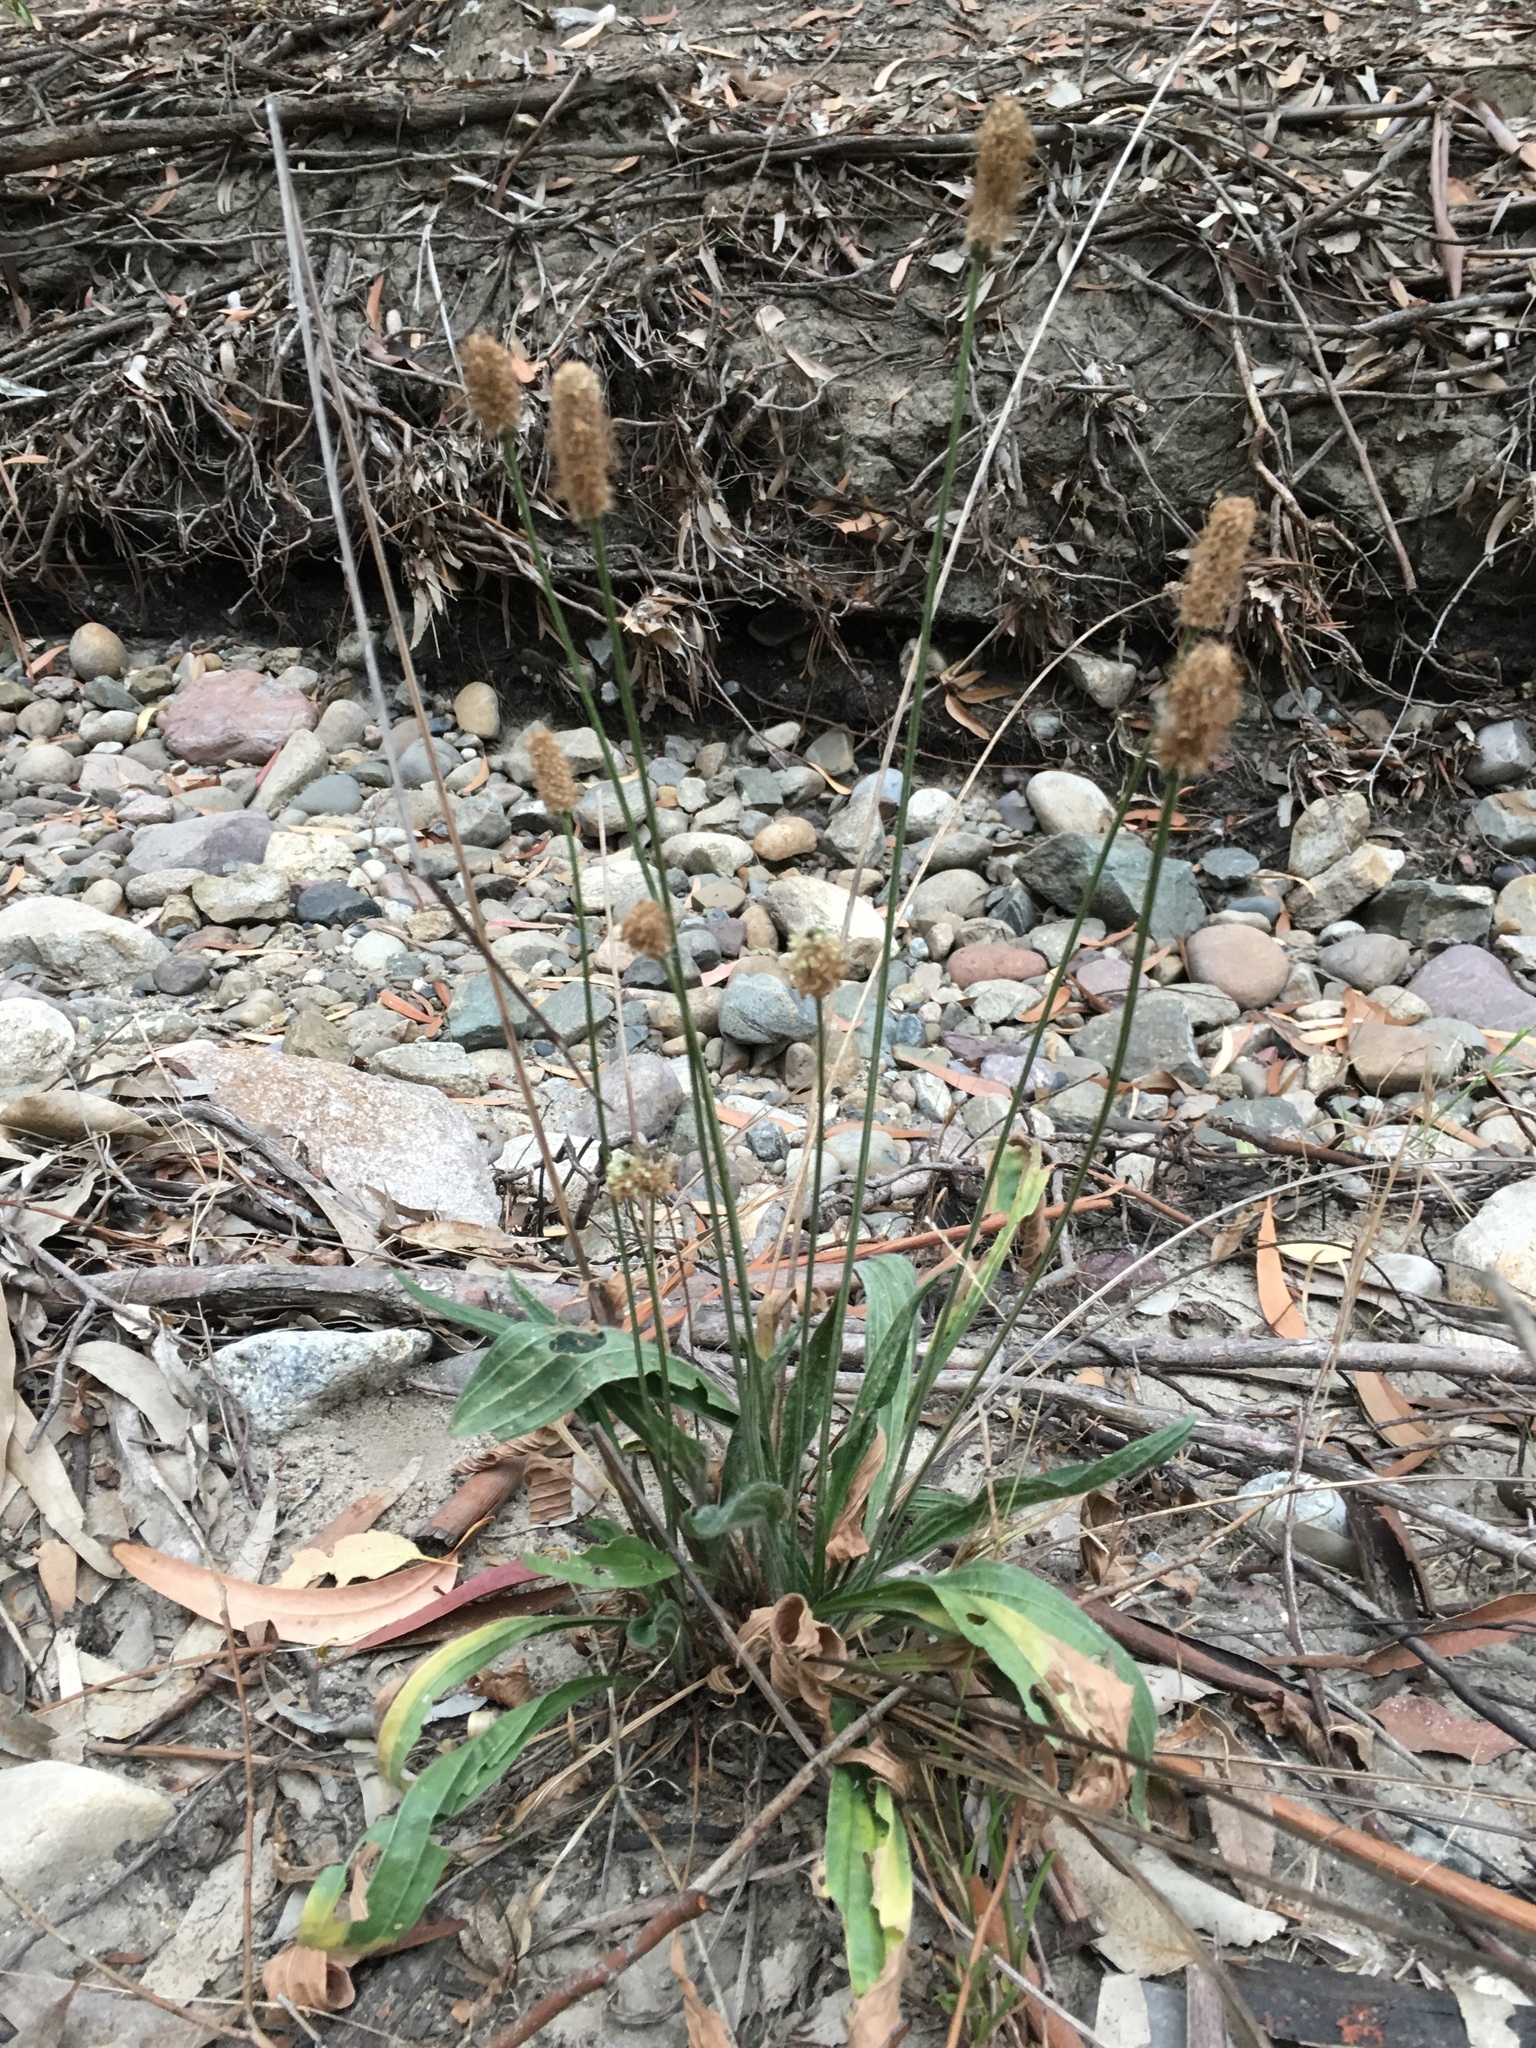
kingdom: Plantae
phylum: Tracheophyta
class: Magnoliopsida
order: Lamiales
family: Plantaginaceae
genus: Plantago
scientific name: Plantago lanceolata
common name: Ribwort plantain
